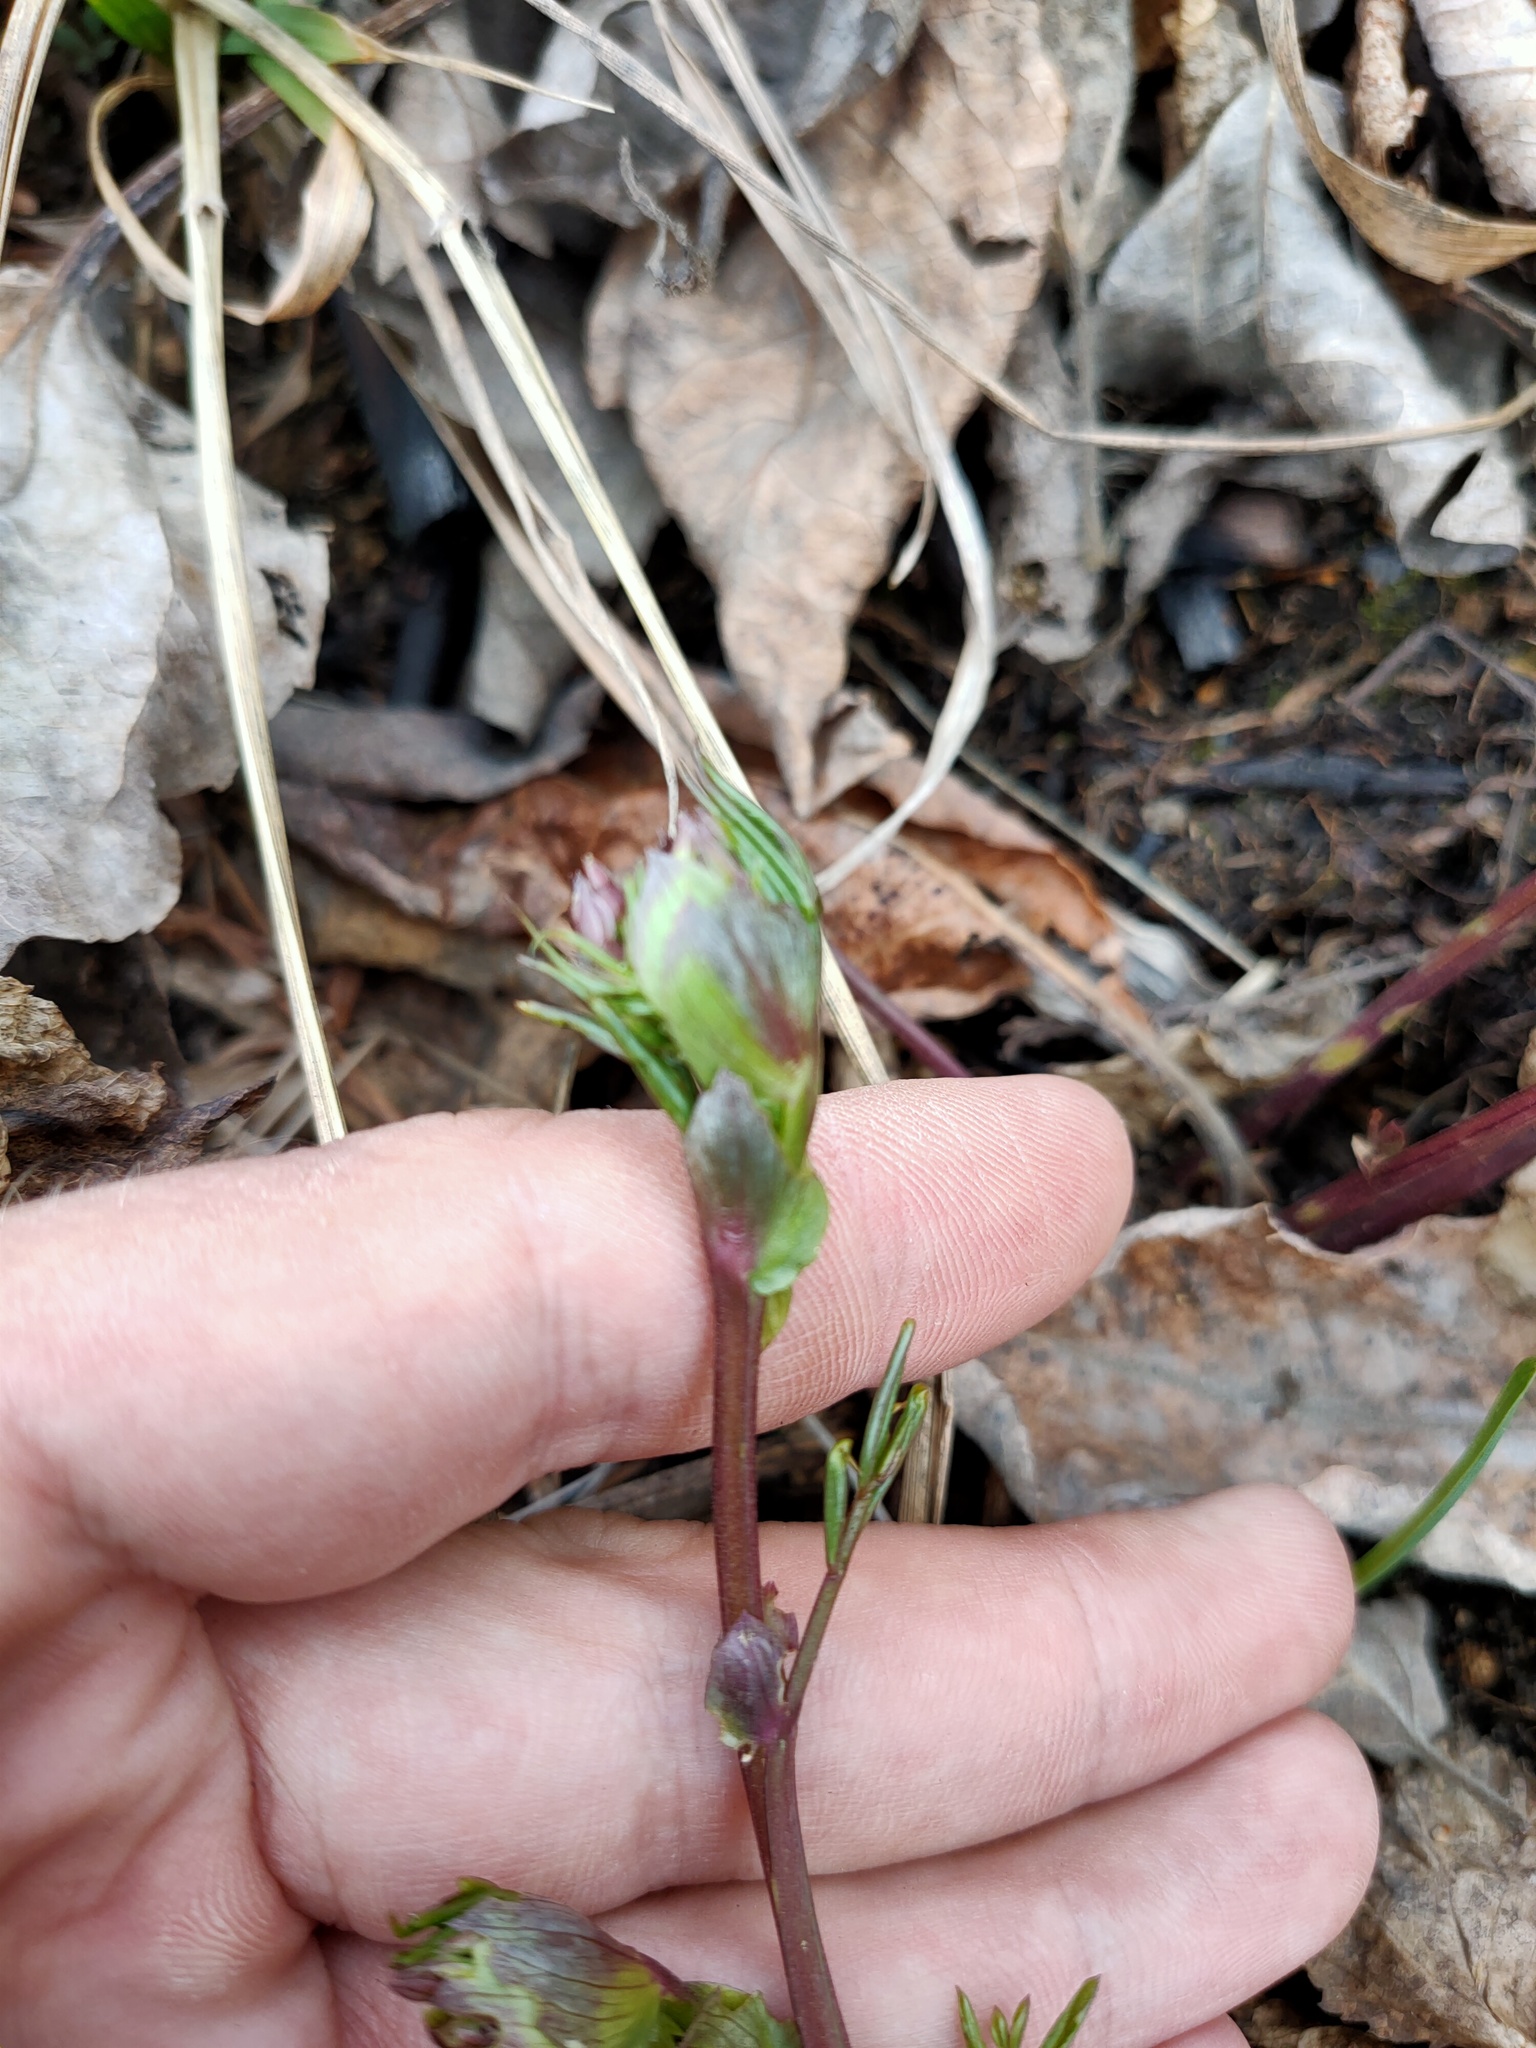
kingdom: Plantae
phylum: Tracheophyta
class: Magnoliopsida
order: Fabales
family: Fabaceae
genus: Lathyrus
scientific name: Lathyrus vernus
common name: Spring pea
